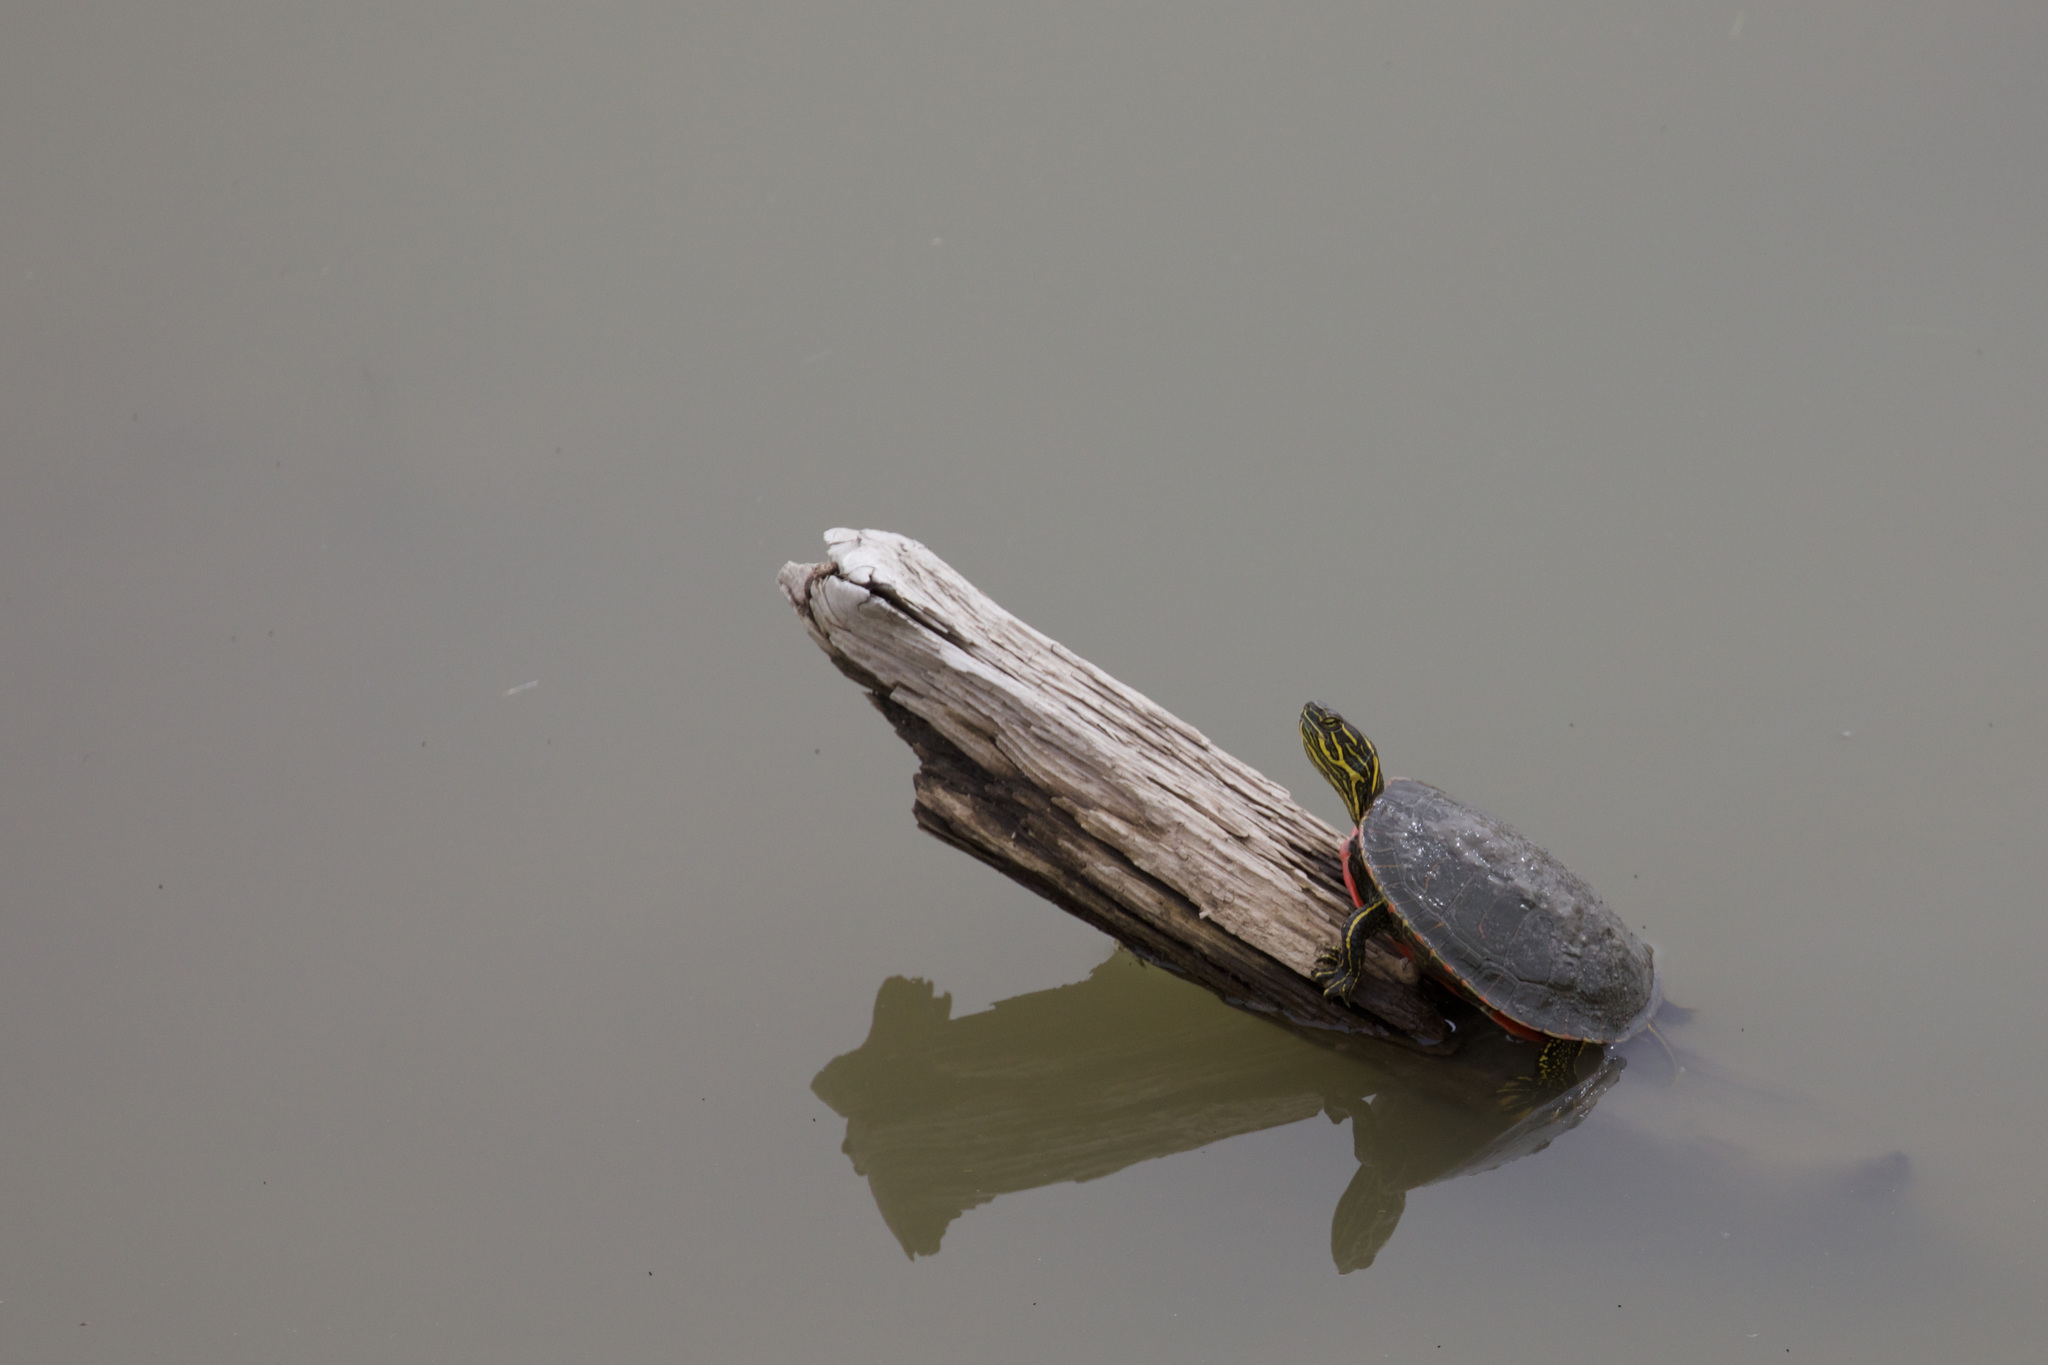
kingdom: Animalia
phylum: Chordata
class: Testudines
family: Emydidae
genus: Chrysemys
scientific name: Chrysemys picta
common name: Painted turtle
